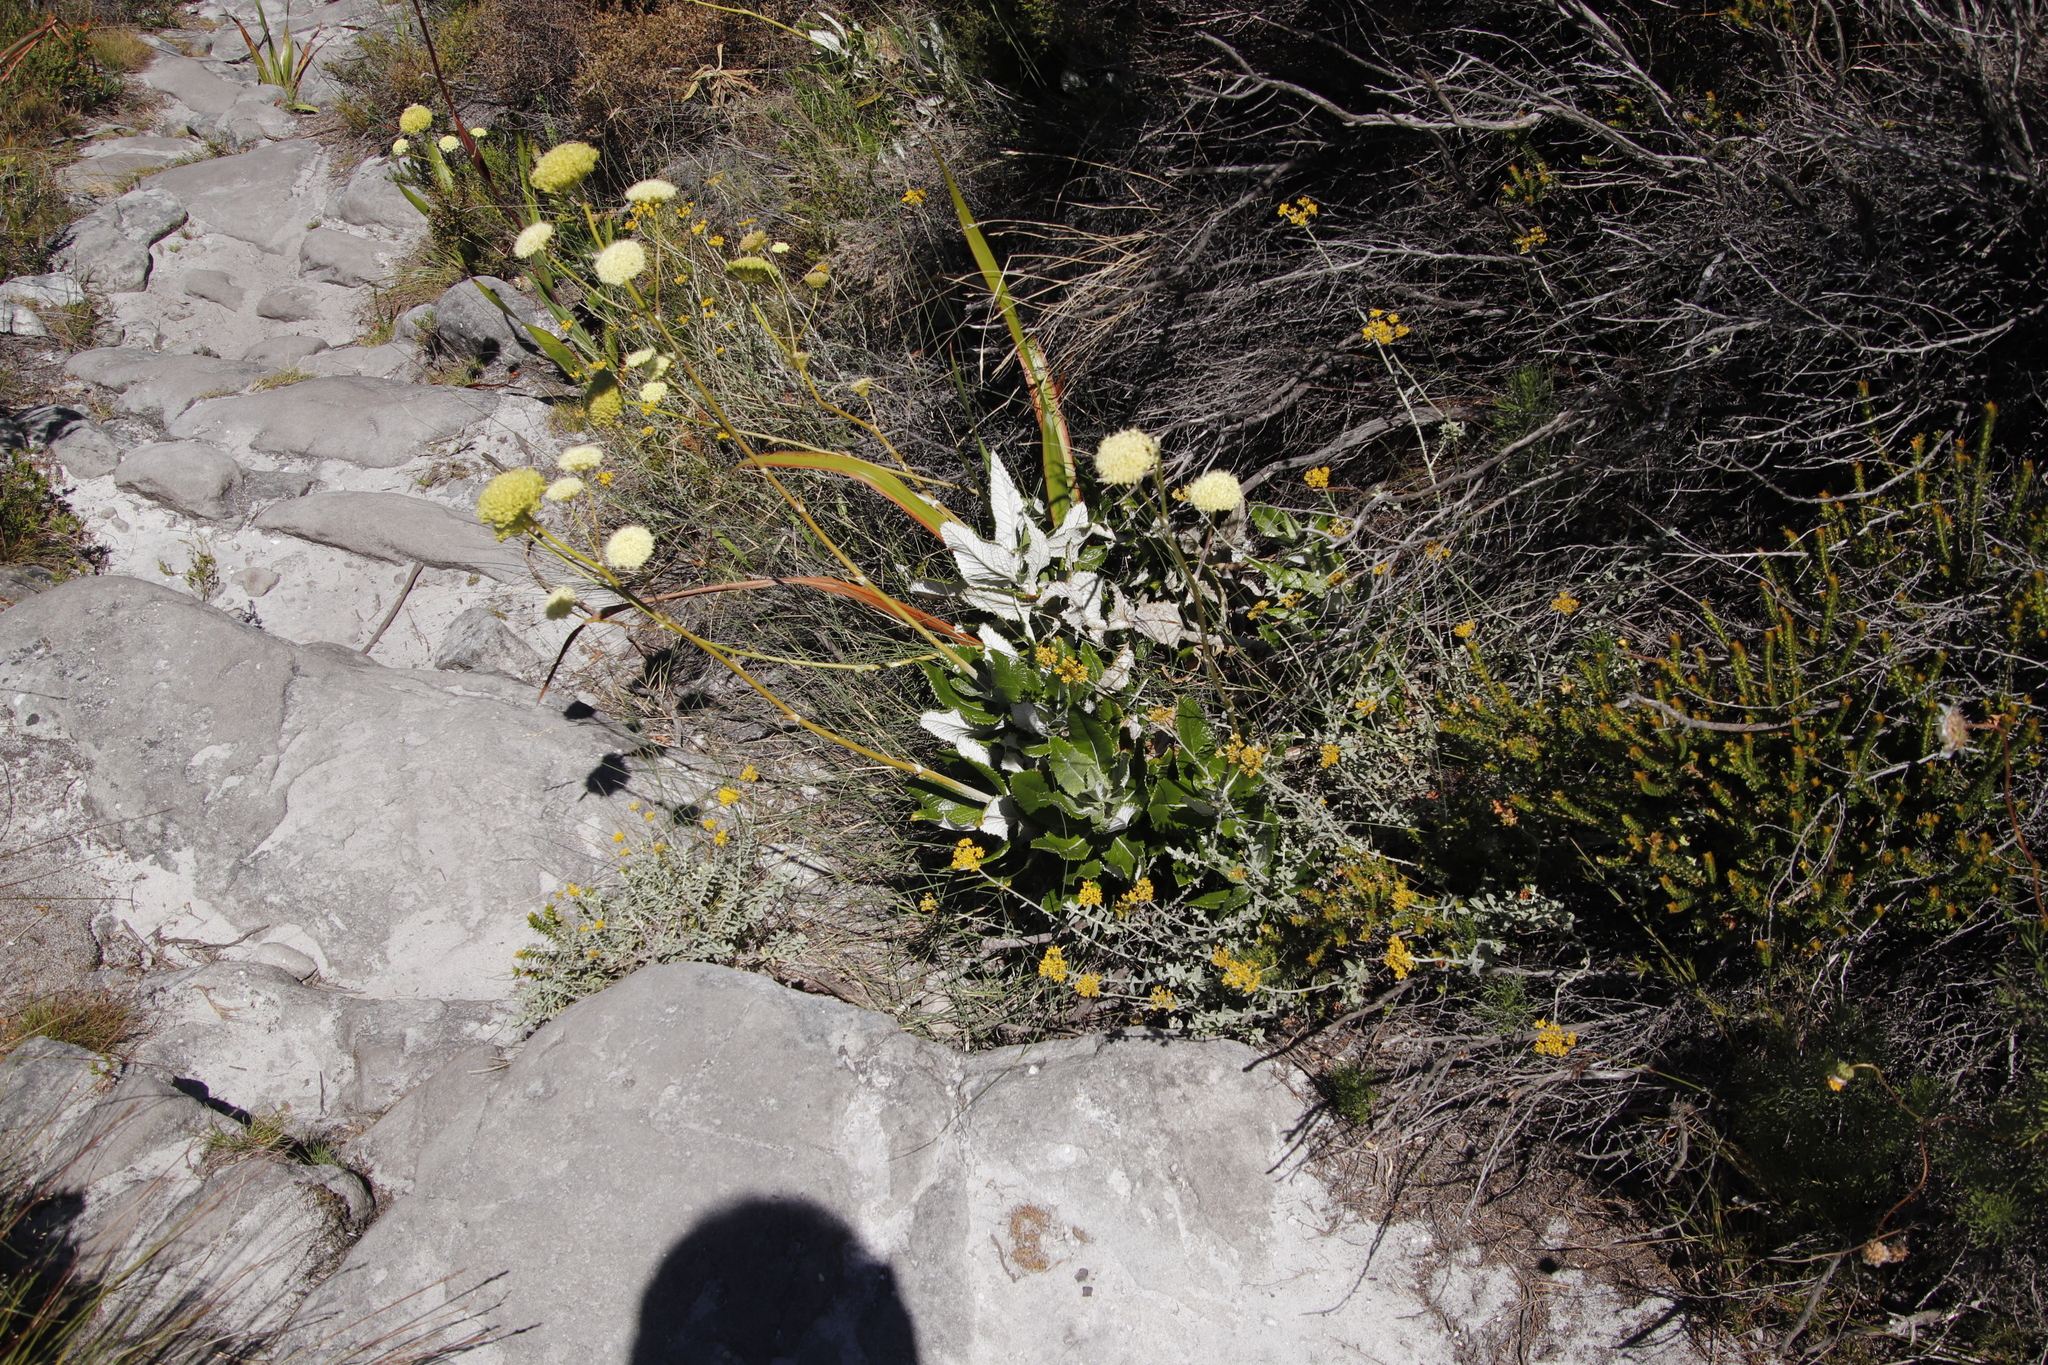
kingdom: Plantae
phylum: Tracheophyta
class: Magnoliopsida
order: Apiales
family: Apiaceae
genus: Hermas
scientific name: Hermas villosa
